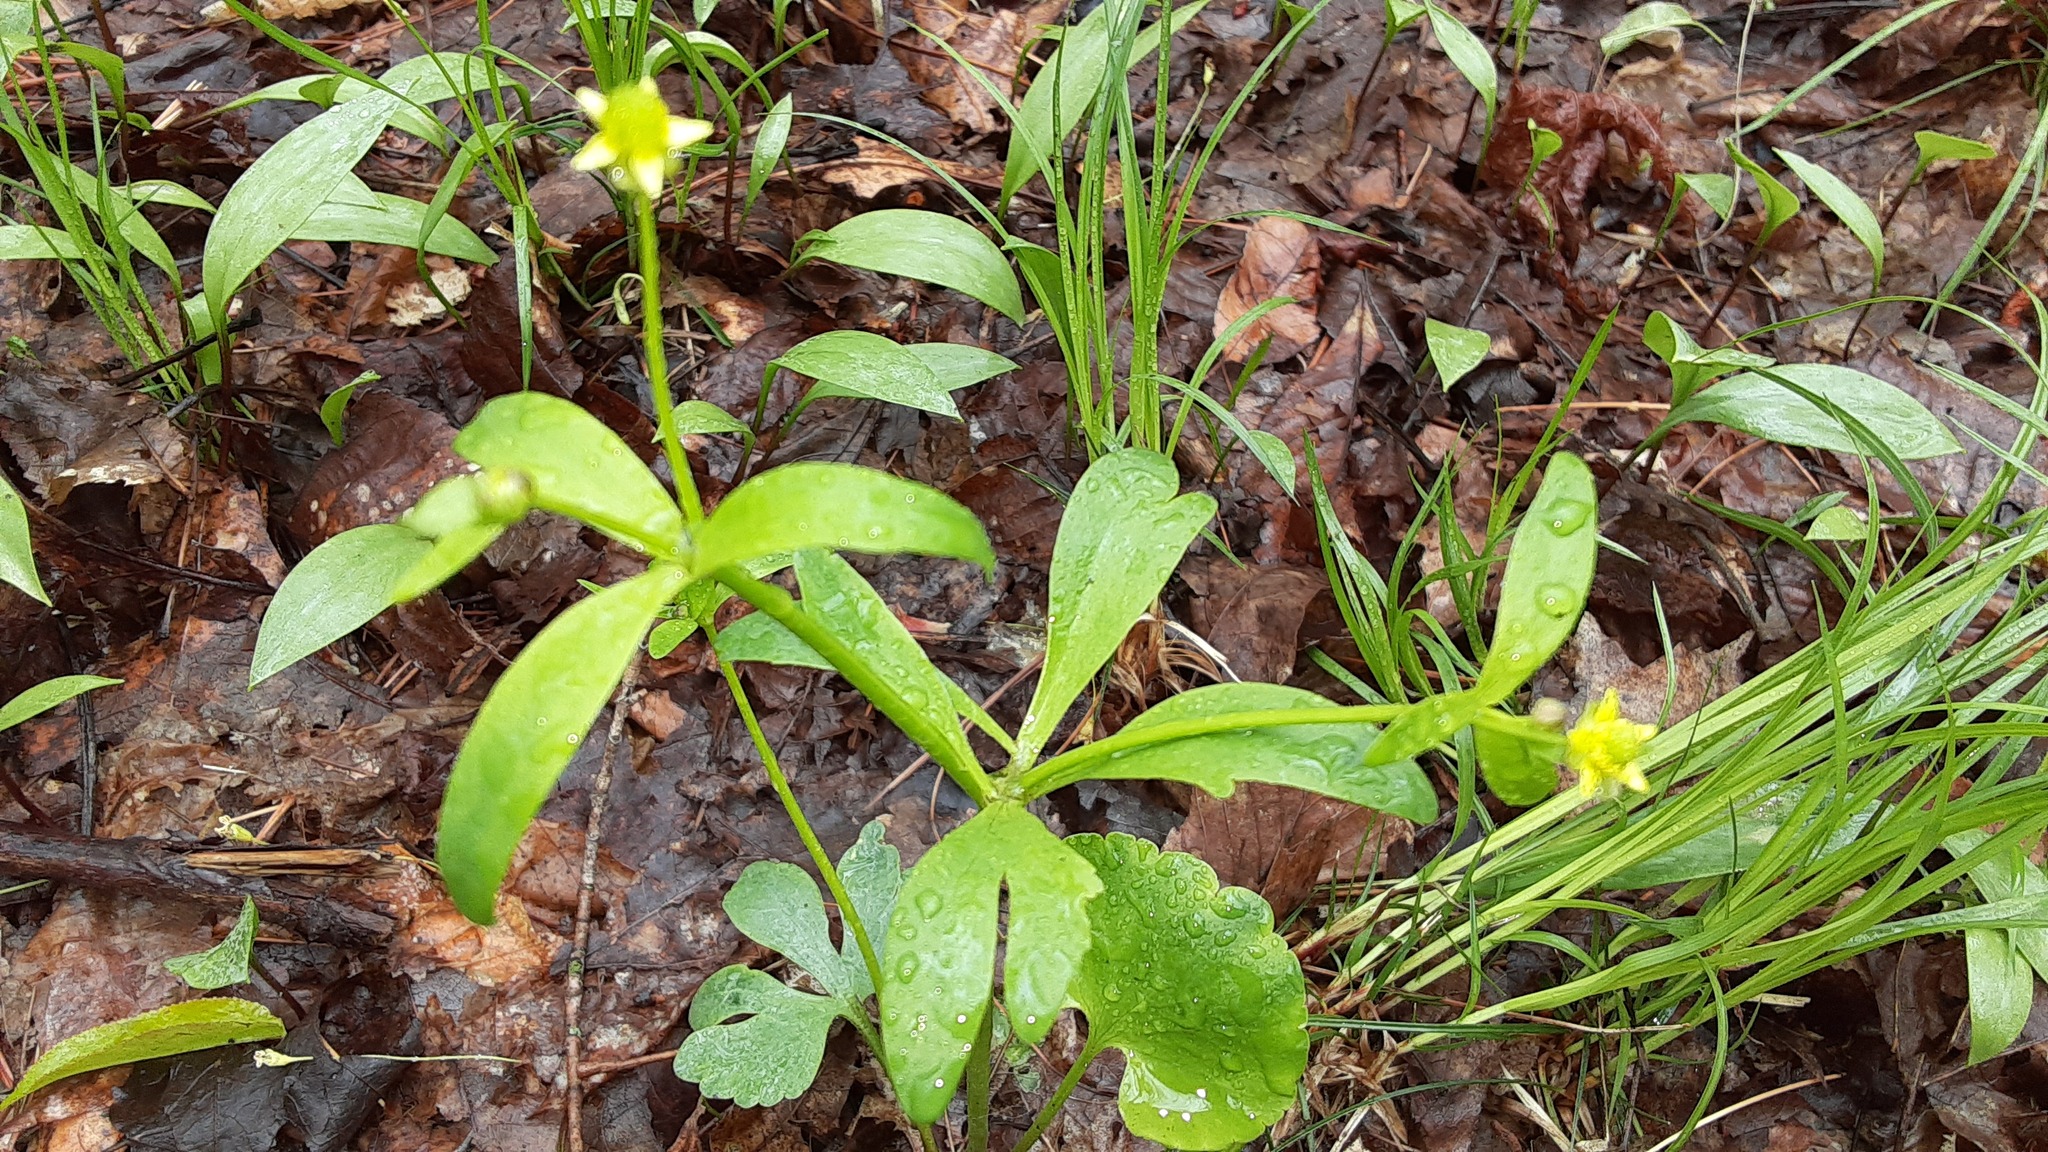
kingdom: Plantae
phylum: Tracheophyta
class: Magnoliopsida
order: Ranunculales
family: Ranunculaceae
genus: Ranunculus
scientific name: Ranunculus abortivus
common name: Early wood buttercup
